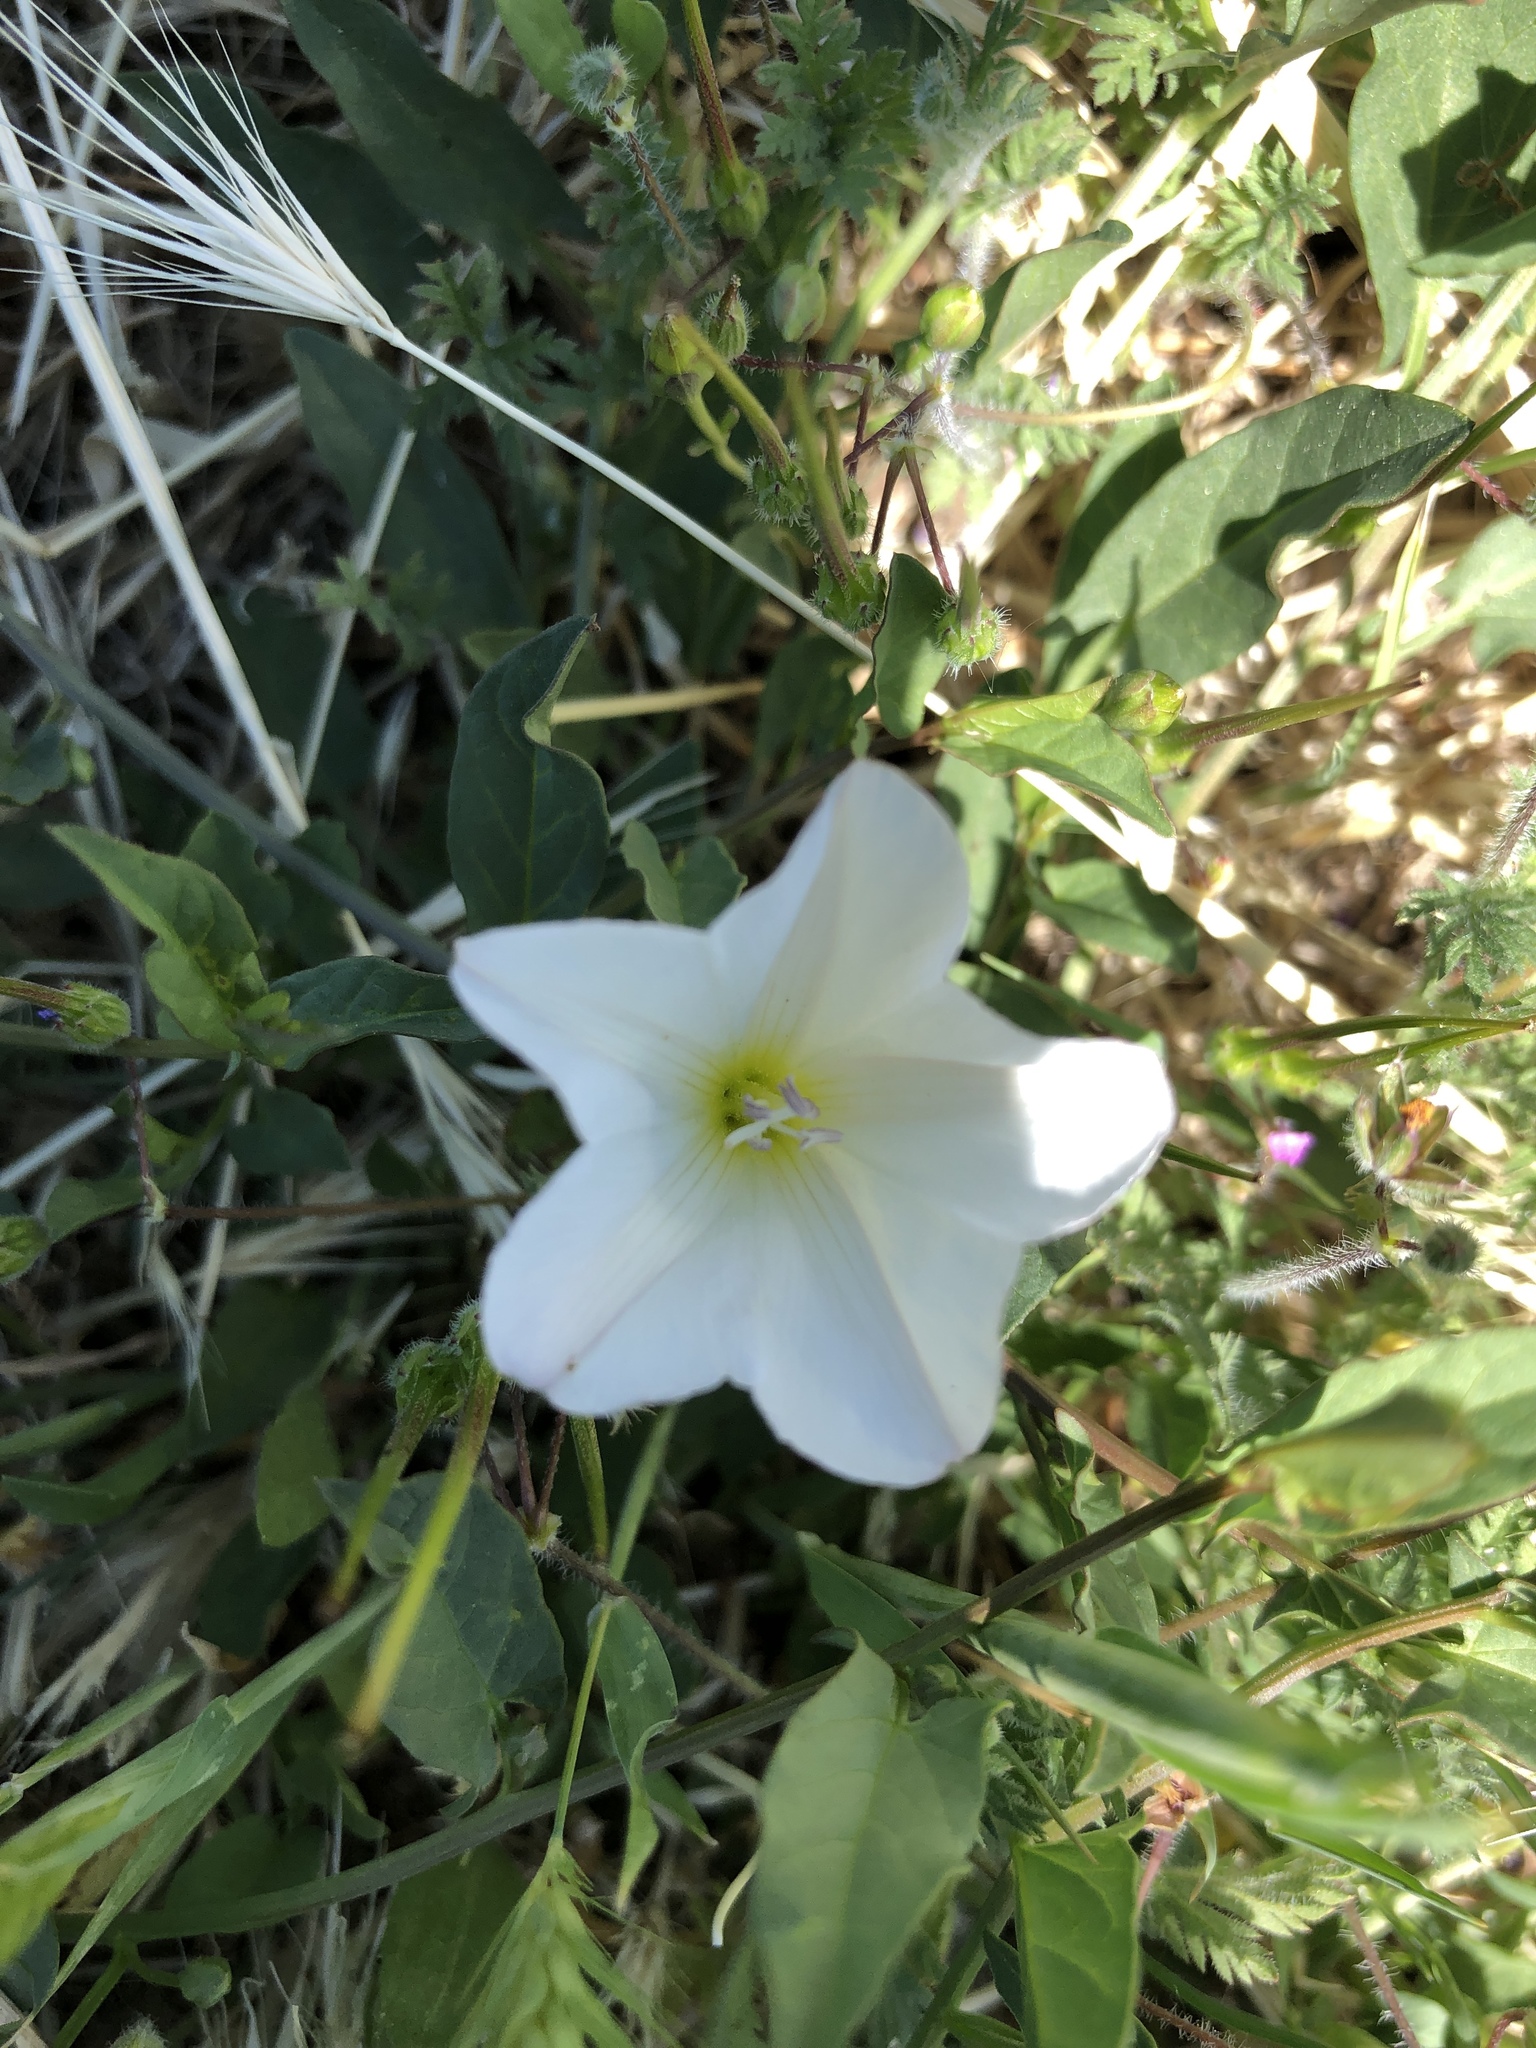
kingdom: Plantae
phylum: Tracheophyta
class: Magnoliopsida
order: Solanales
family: Convolvulaceae
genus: Convolvulus
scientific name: Convolvulus arvensis
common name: Field bindweed
